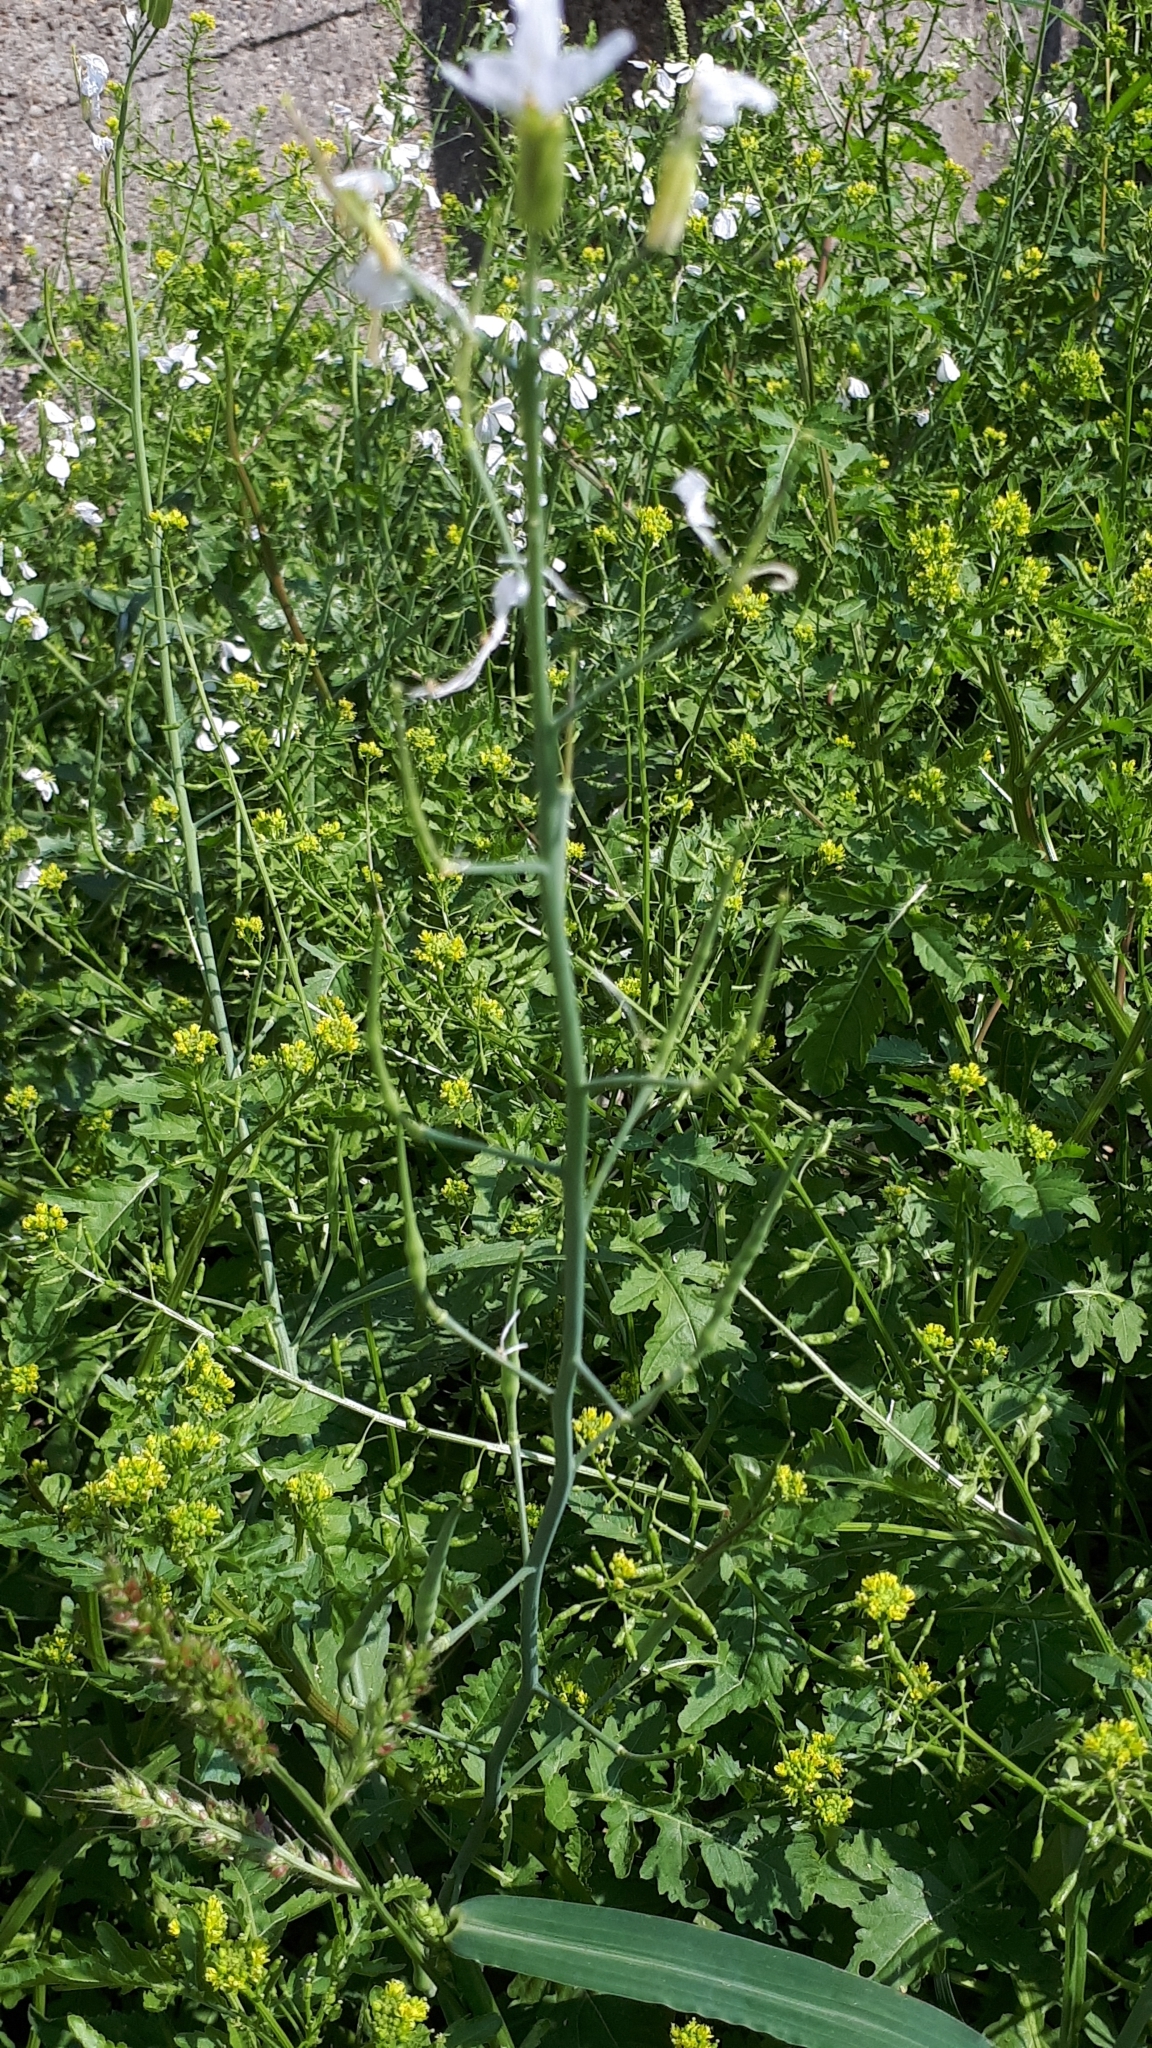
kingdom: Plantae
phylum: Tracheophyta
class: Magnoliopsida
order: Brassicales
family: Brassicaceae
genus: Raphanus
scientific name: Raphanus raphanistrum
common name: Wild radish
